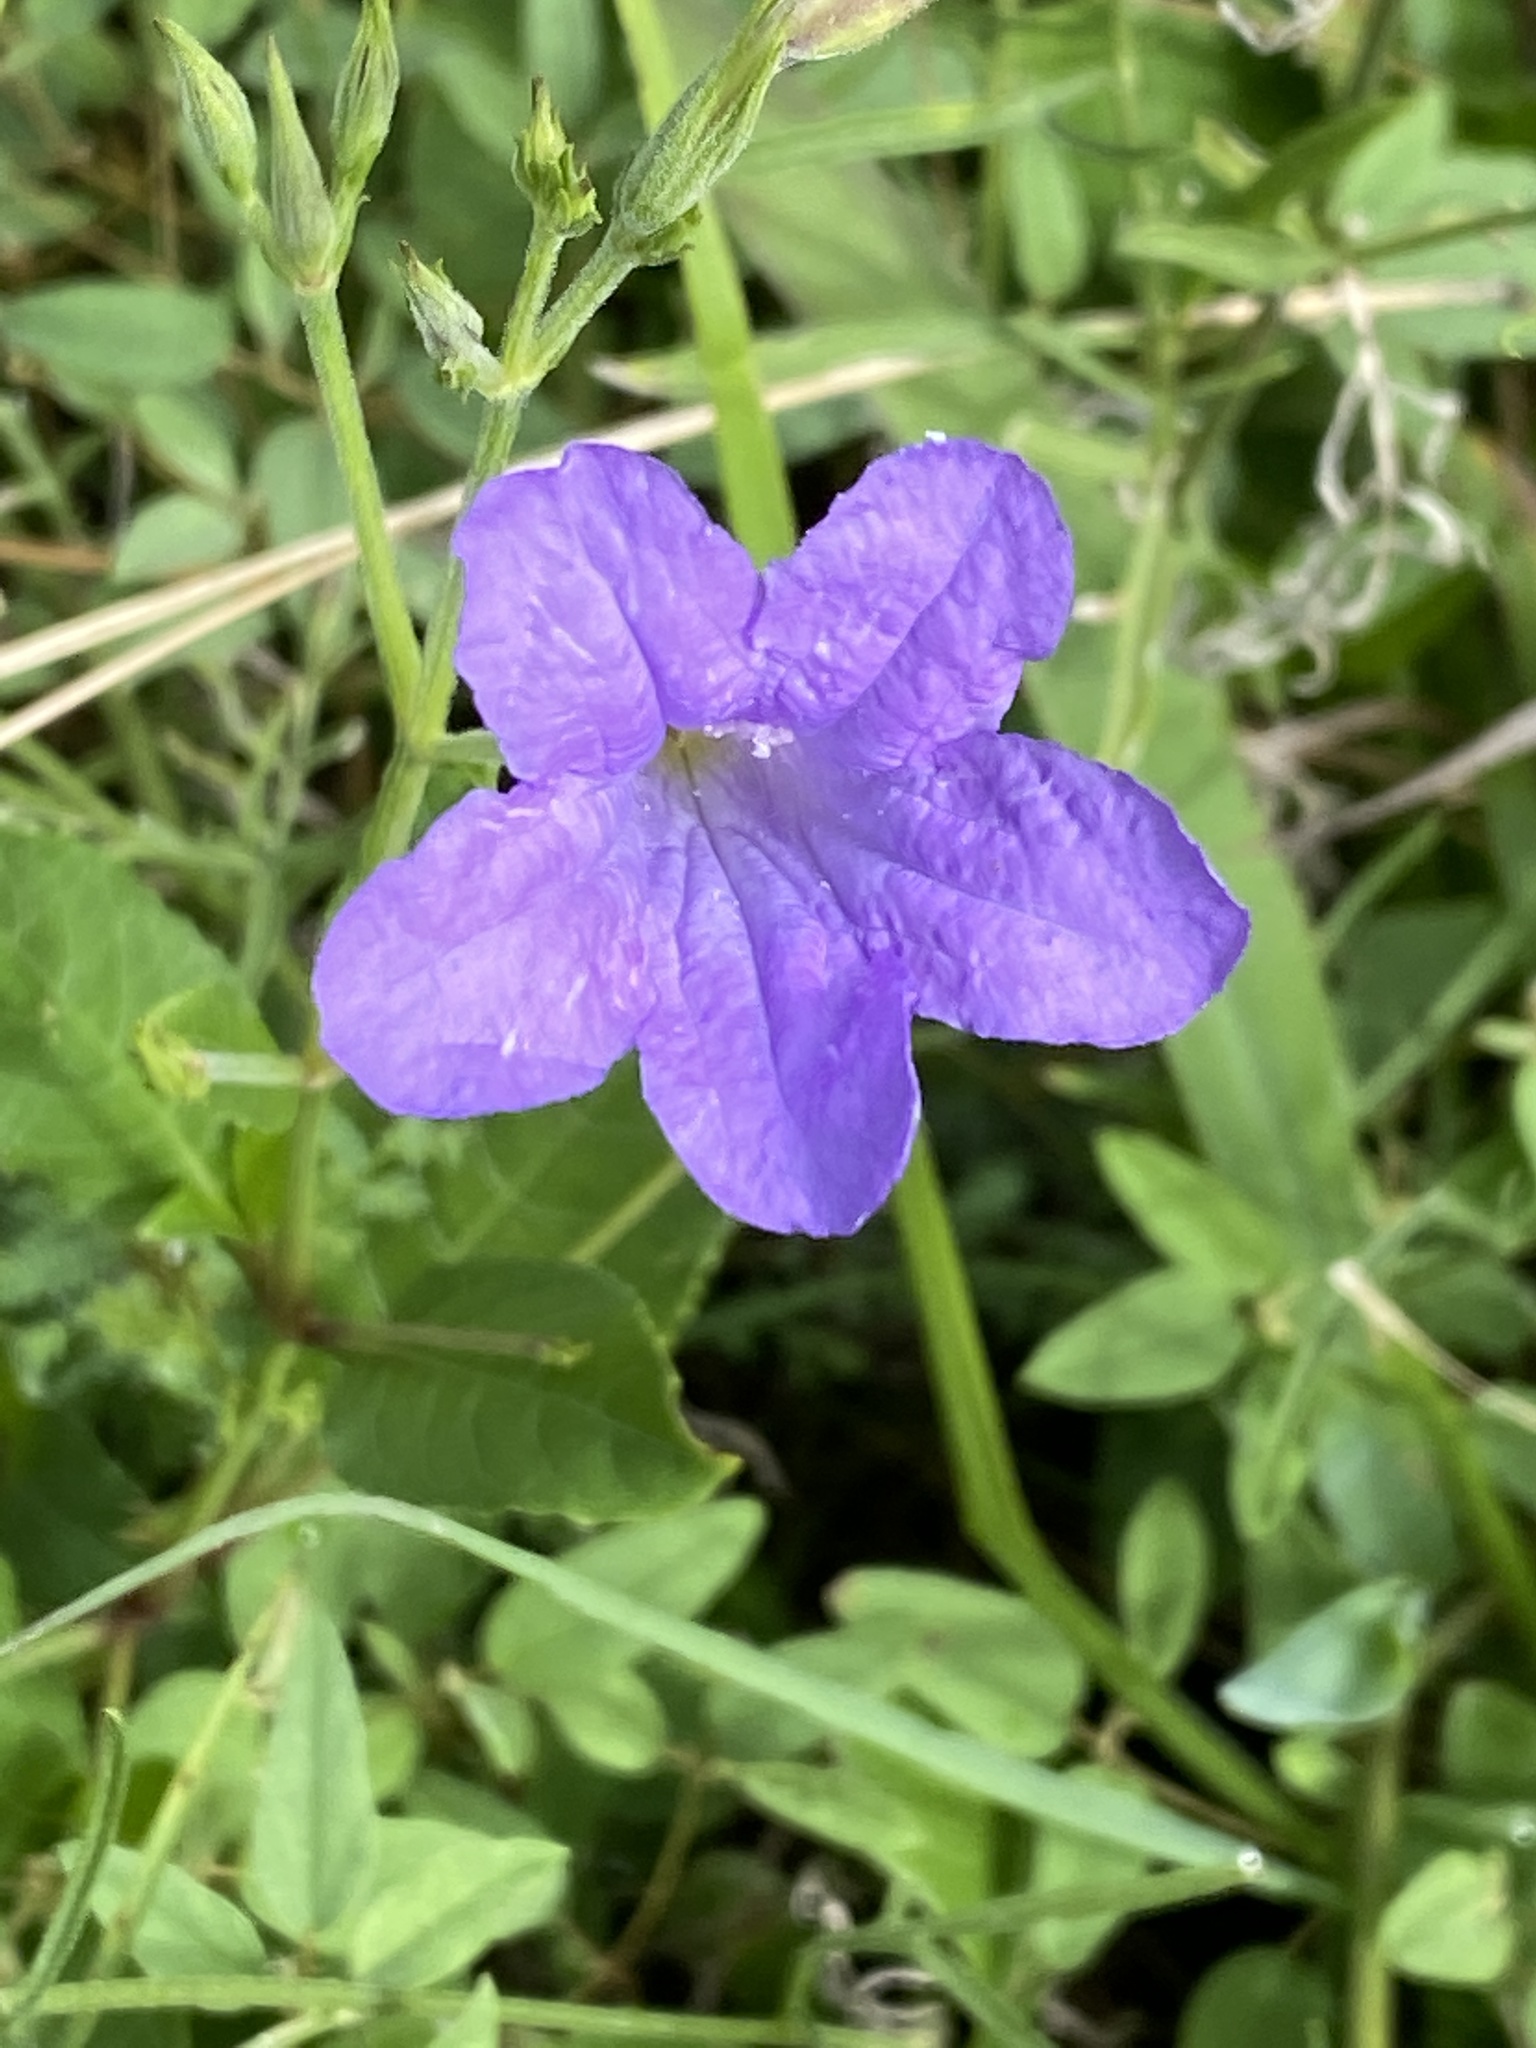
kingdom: Plantae
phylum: Tracheophyta
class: Magnoliopsida
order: Lamiales
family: Acanthaceae
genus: Ruellia
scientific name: Ruellia ciliatiflora
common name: Hairyflower wild petunia
